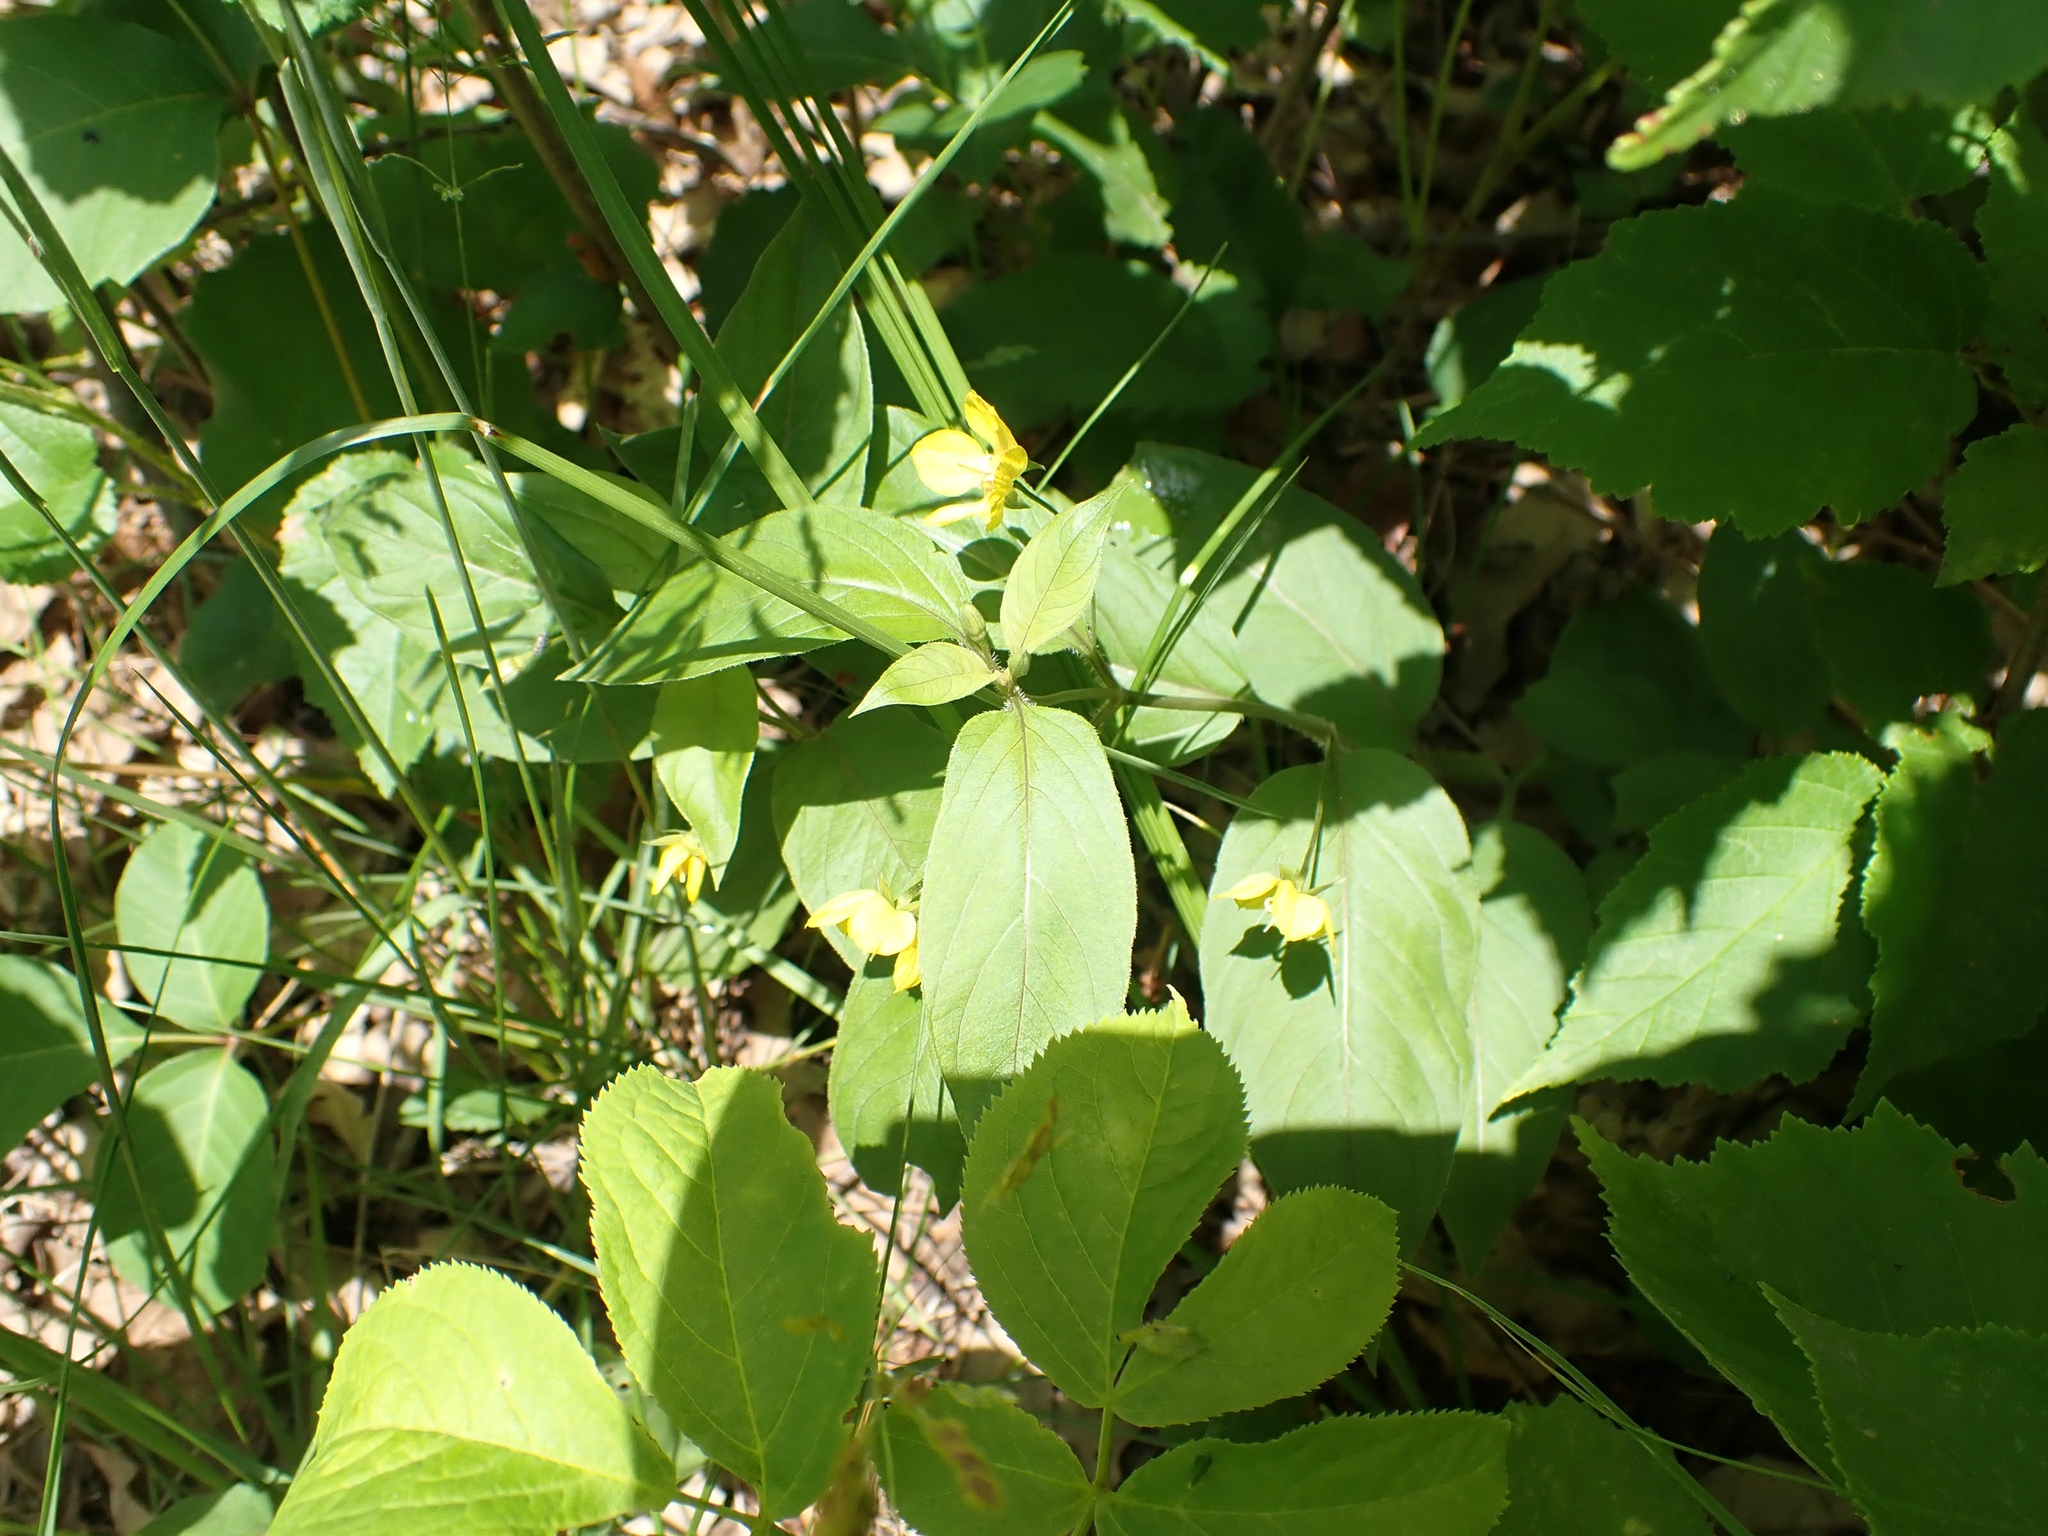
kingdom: Plantae
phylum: Tracheophyta
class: Magnoliopsida
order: Ericales
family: Primulaceae
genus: Lysimachia
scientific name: Lysimachia ciliata
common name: Fringed loosestrife
